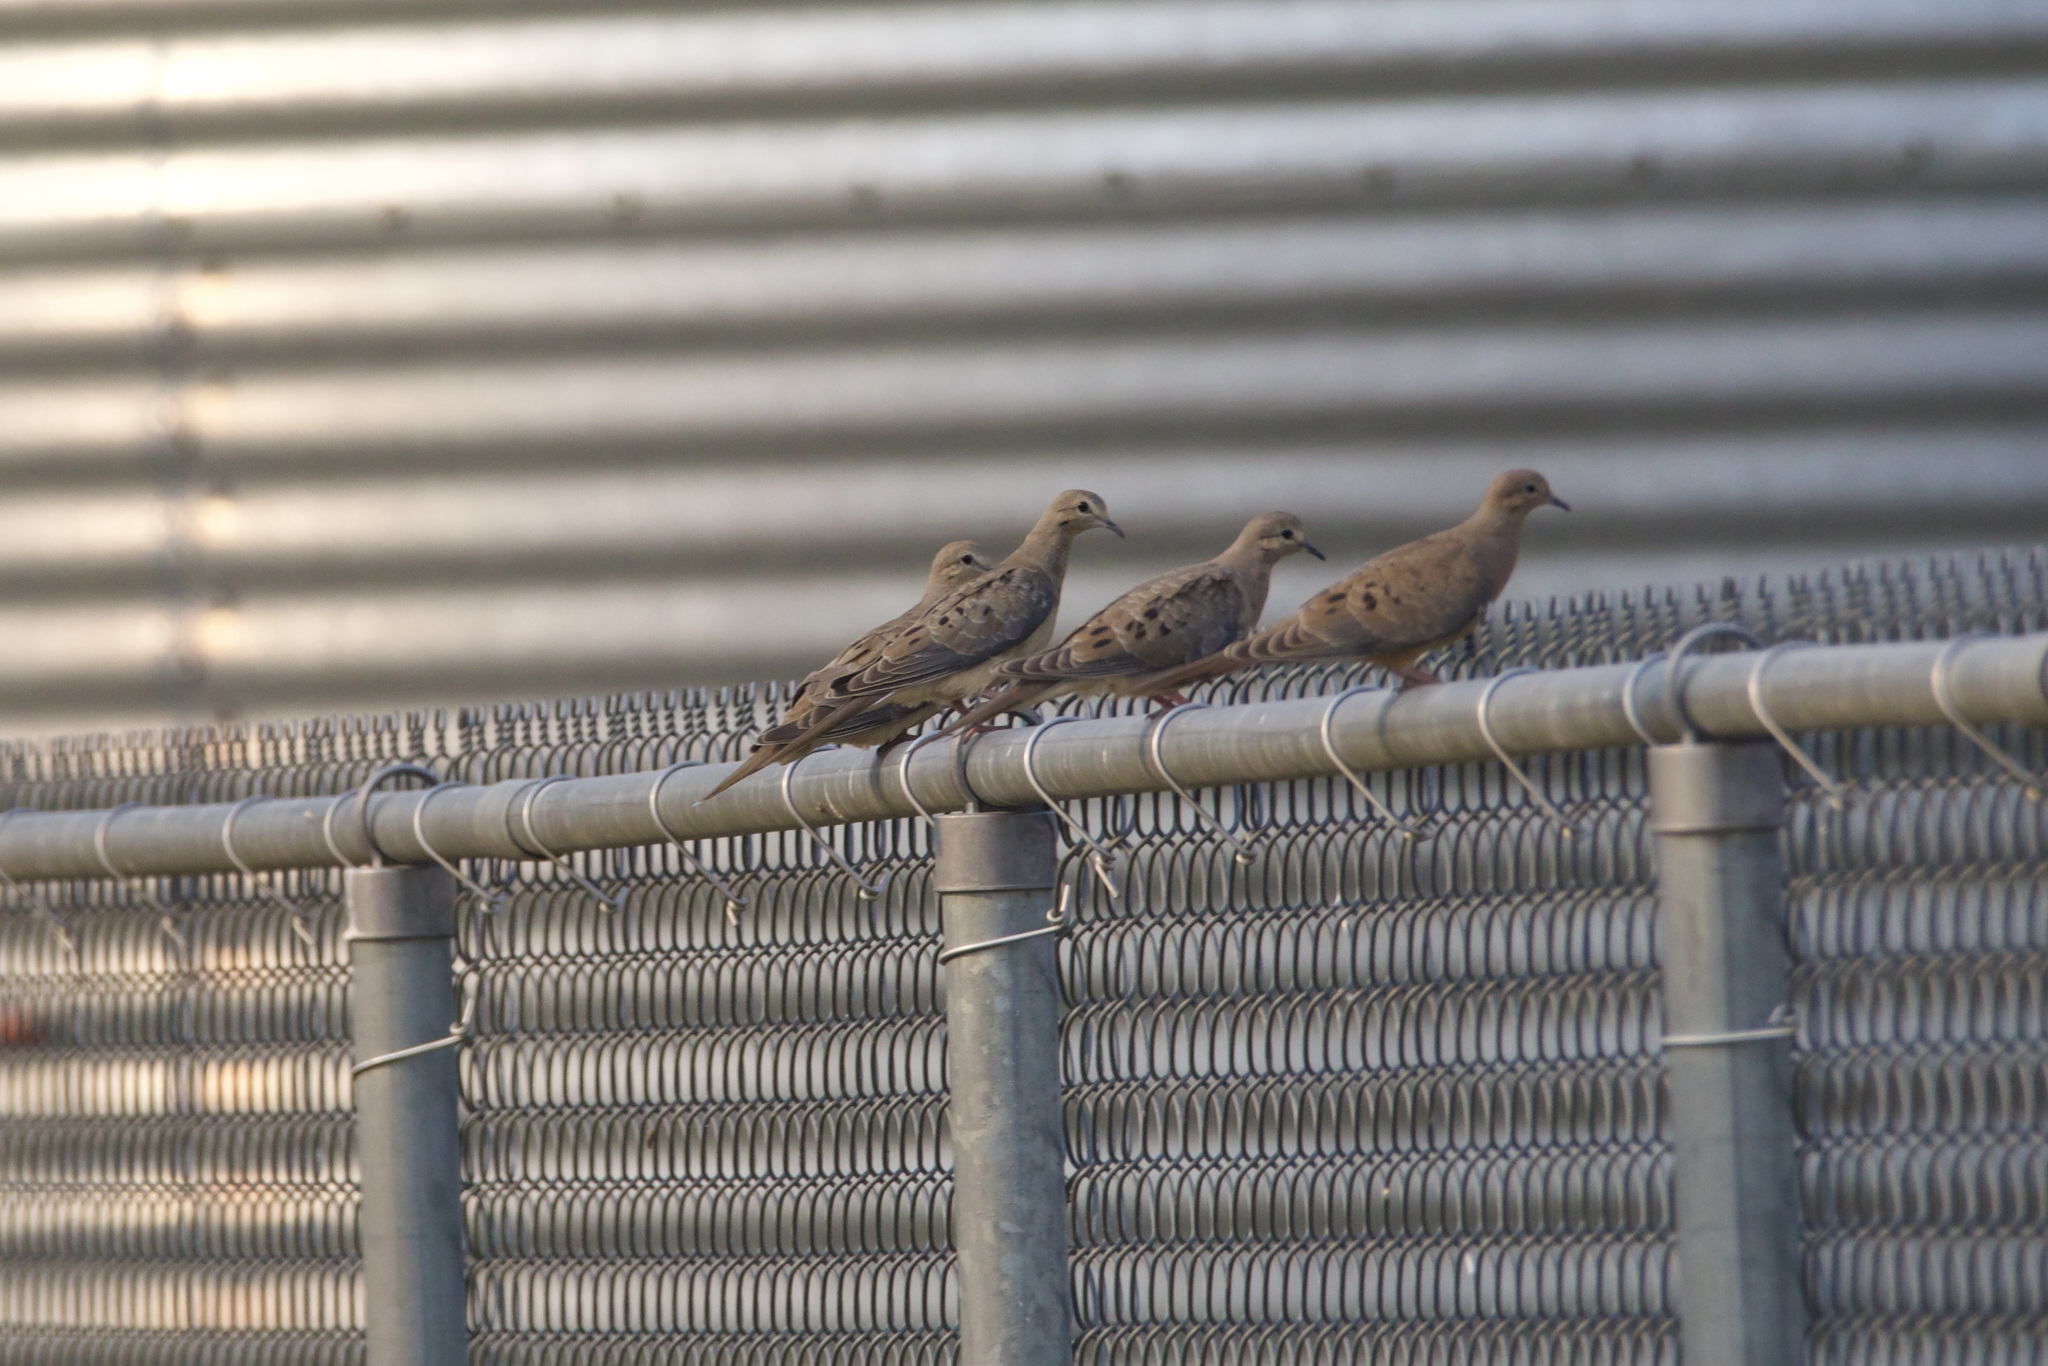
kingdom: Animalia
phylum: Chordata
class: Aves
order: Columbiformes
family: Columbidae
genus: Zenaida
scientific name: Zenaida macroura
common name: Mourning dove
